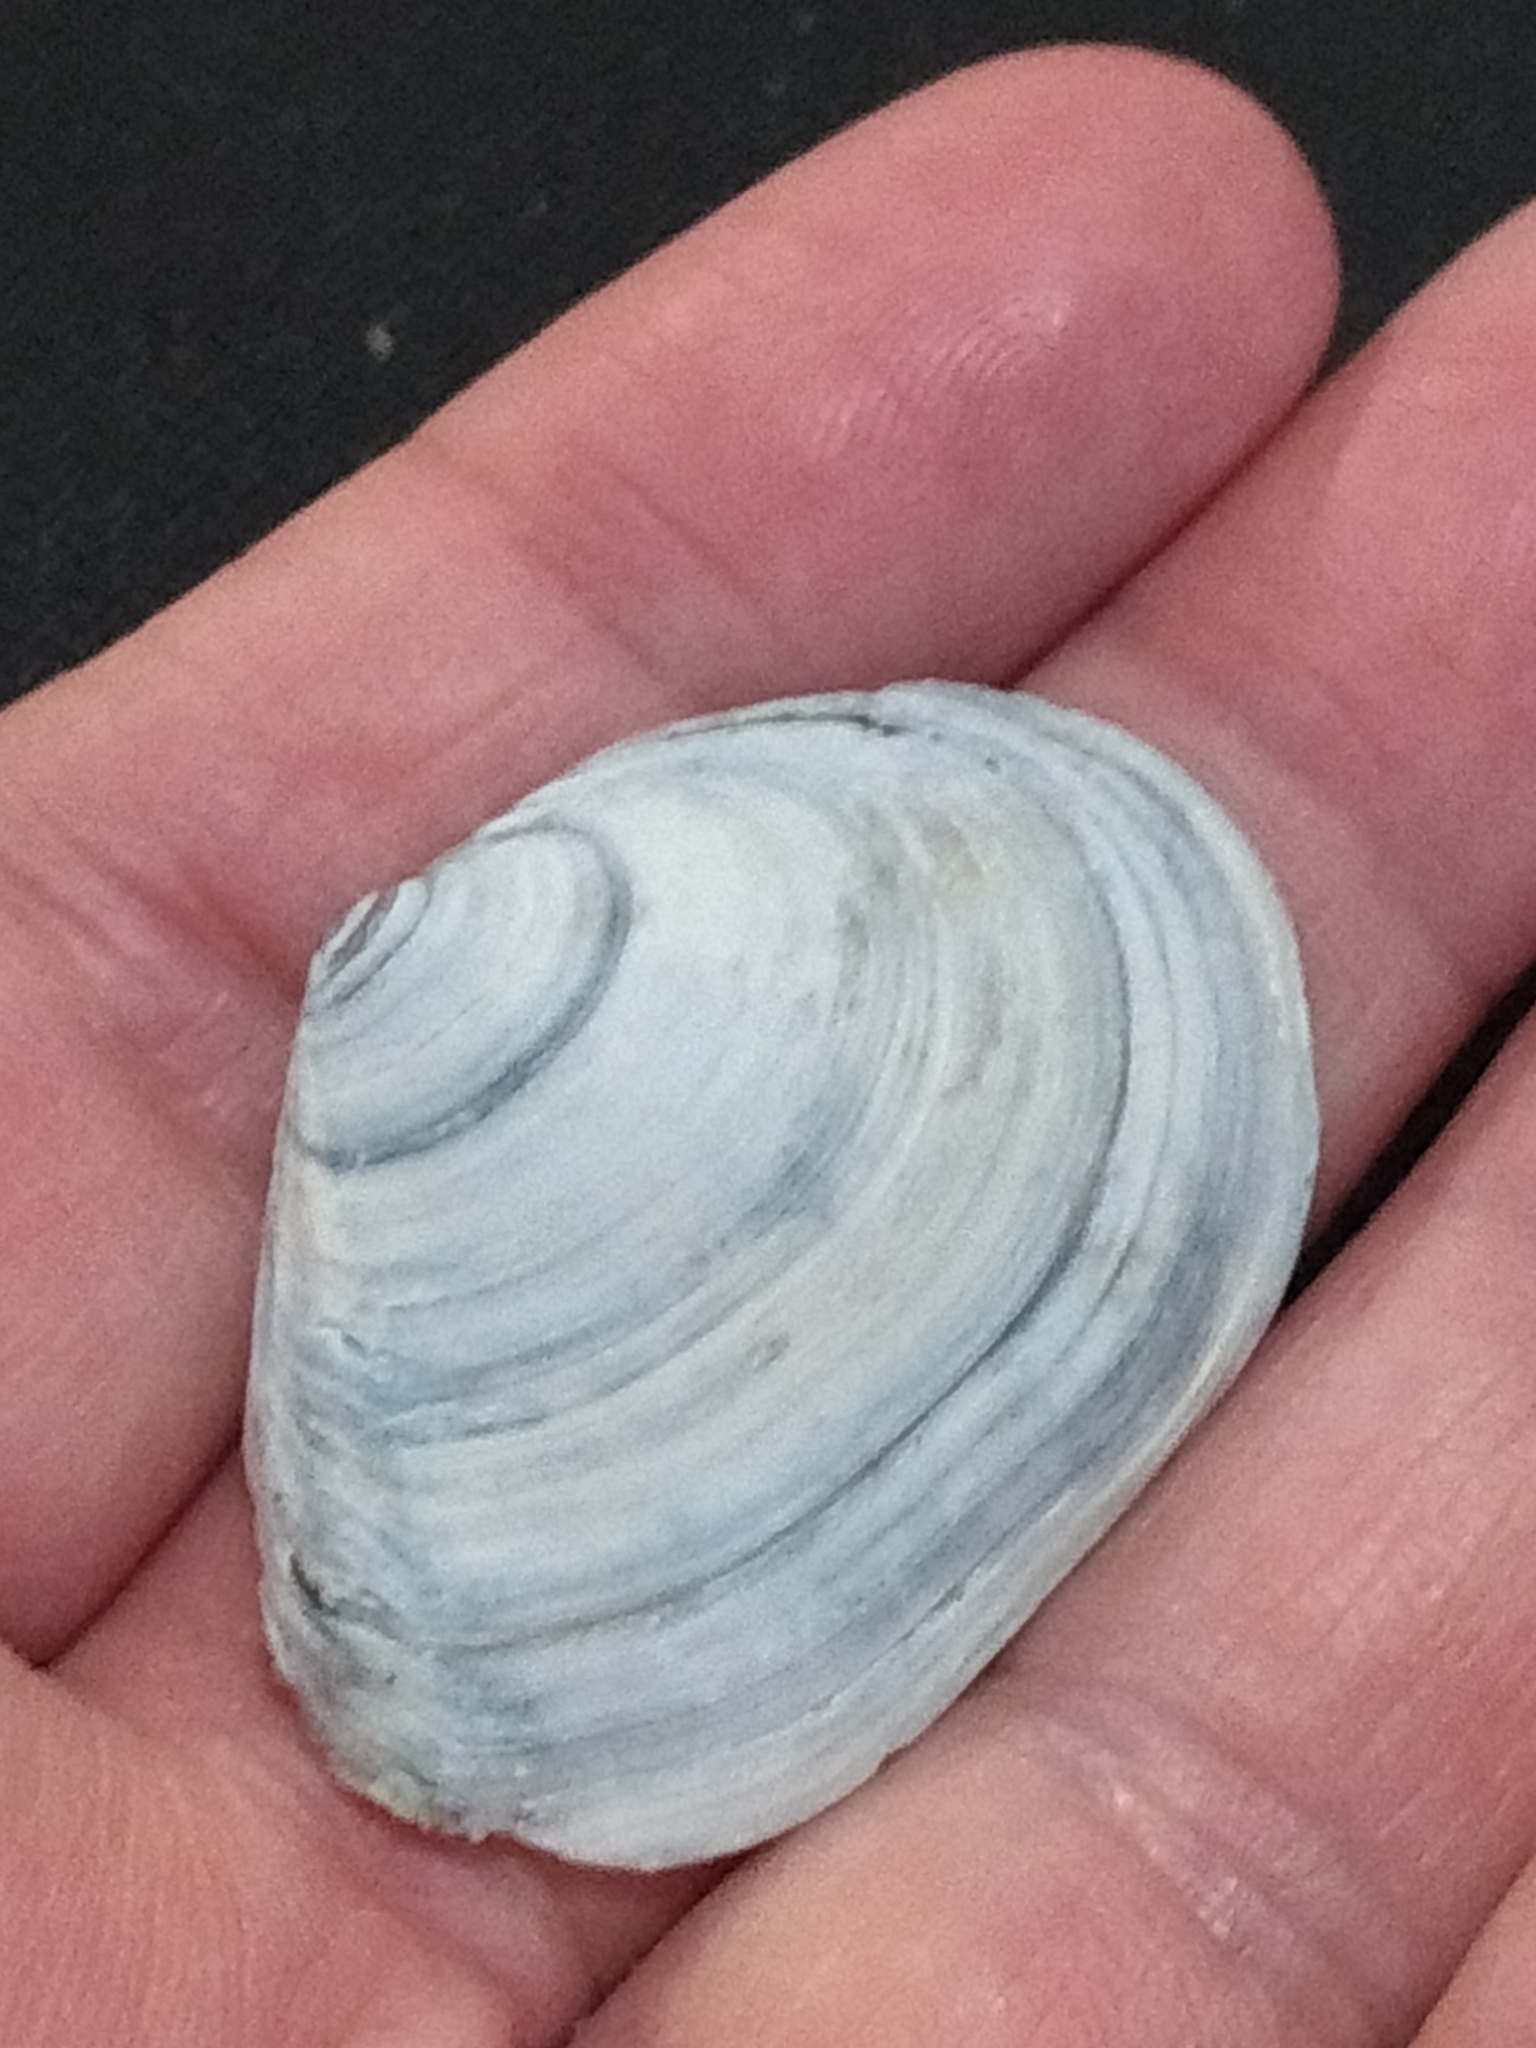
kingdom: Animalia
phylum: Mollusca
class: Bivalvia
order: Cardiida
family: Tellinidae
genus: Macoma
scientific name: Macoma nasuta
